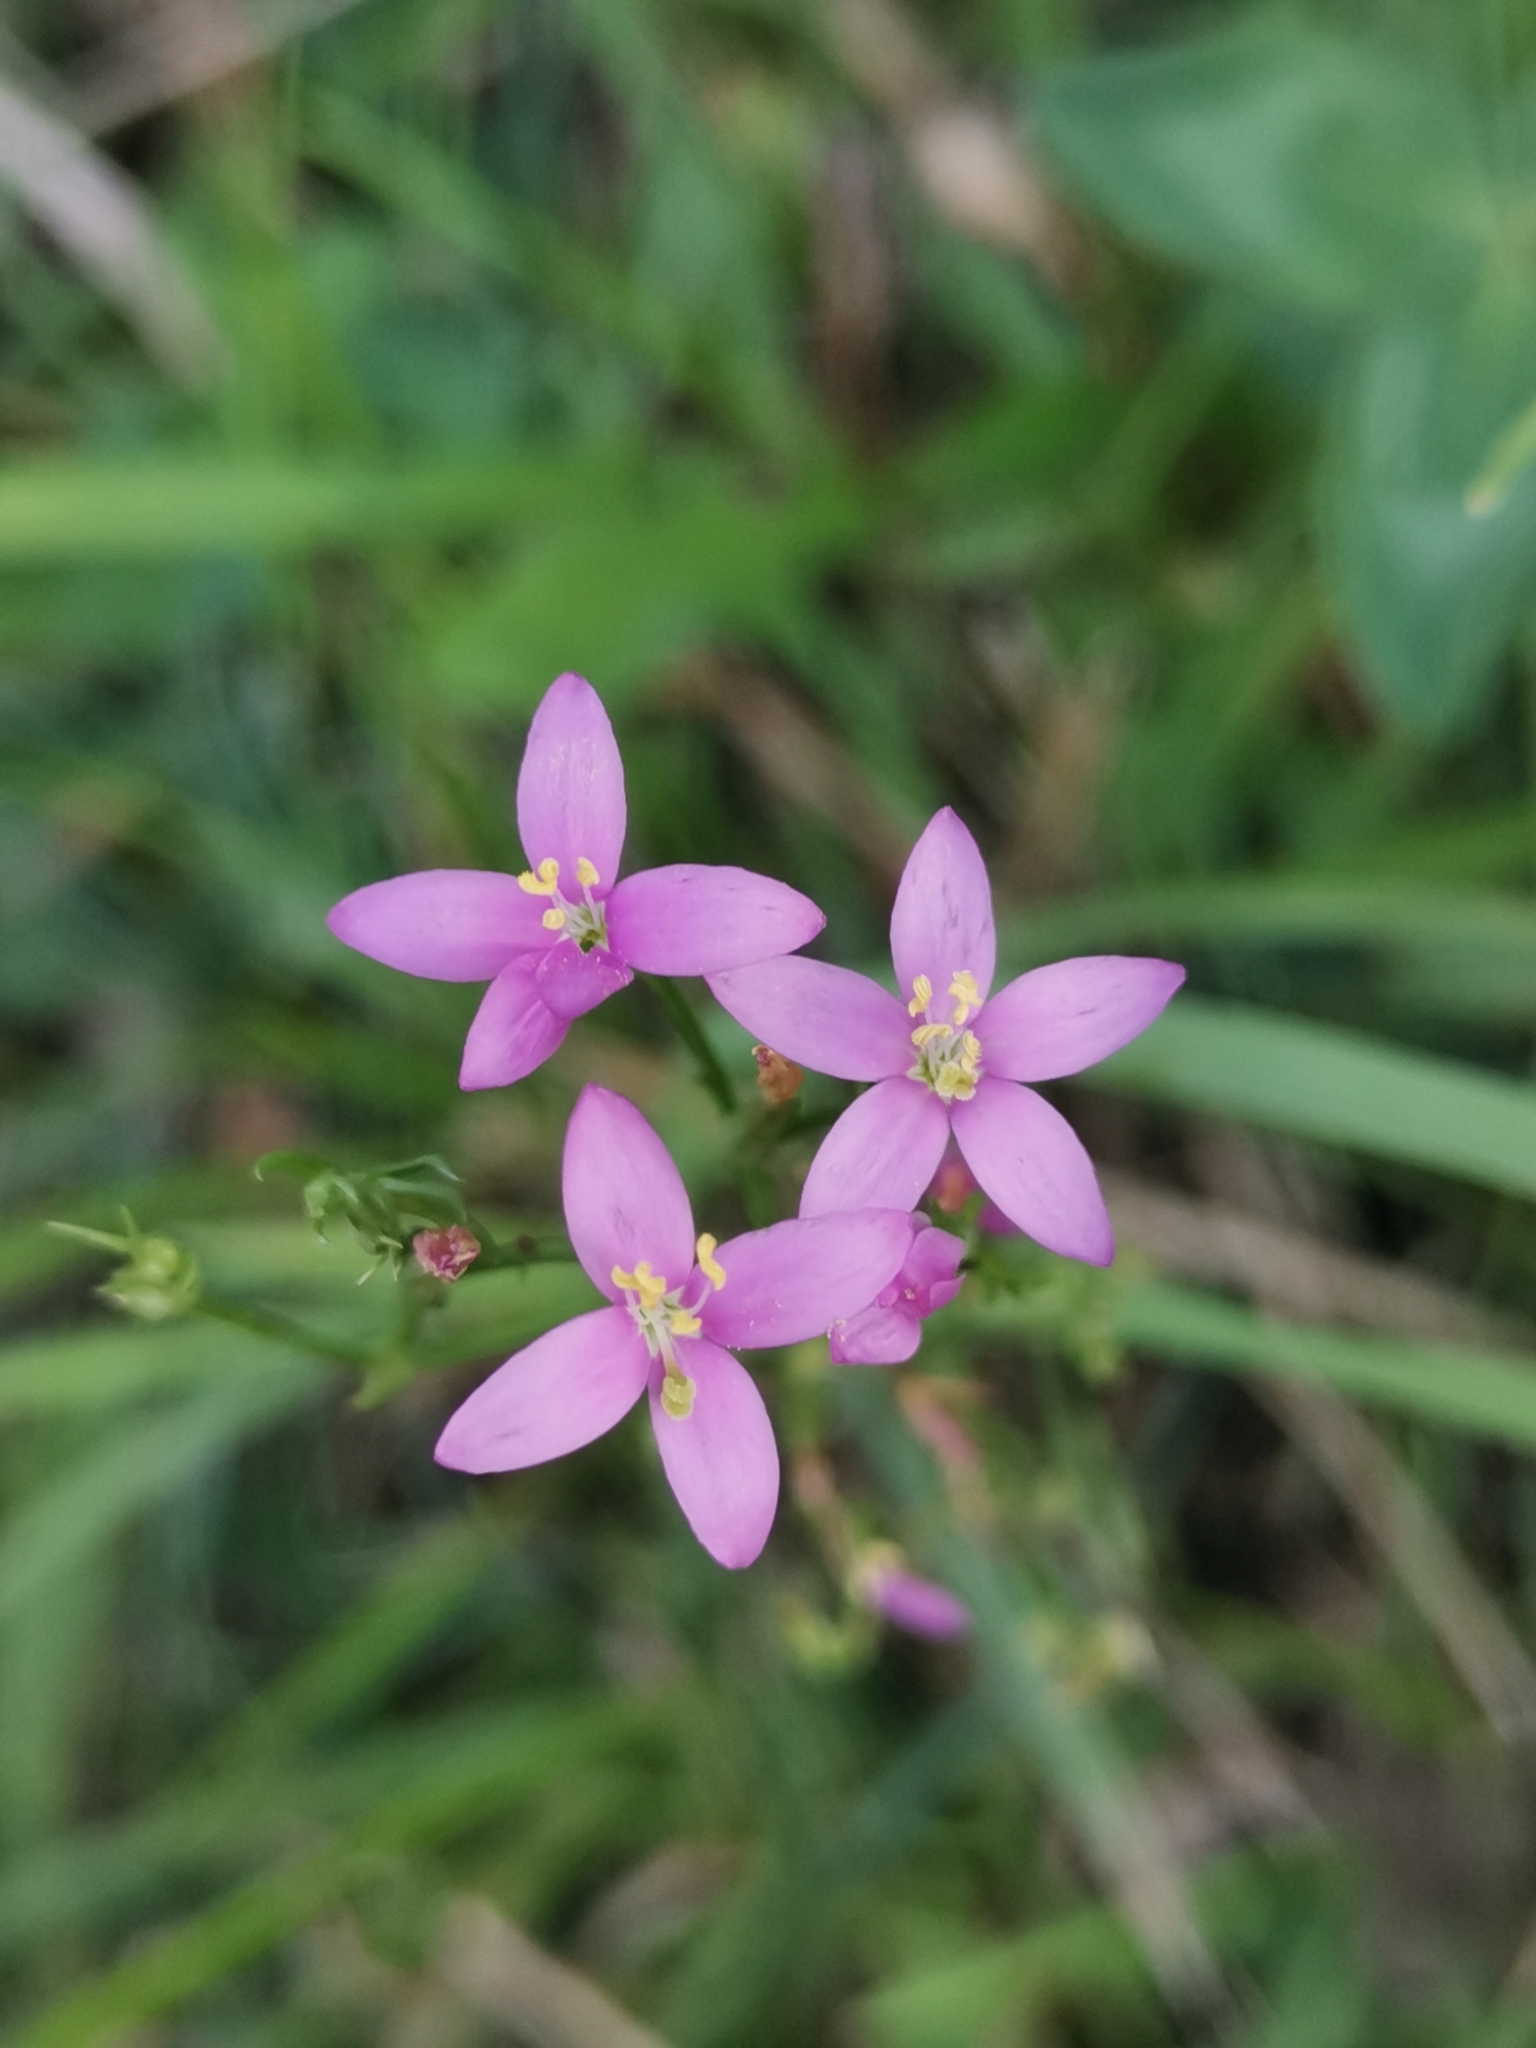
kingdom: Plantae
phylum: Tracheophyta
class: Magnoliopsida
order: Gentianales
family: Gentianaceae
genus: Centaurium
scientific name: Centaurium erythraea
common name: Common centaury
